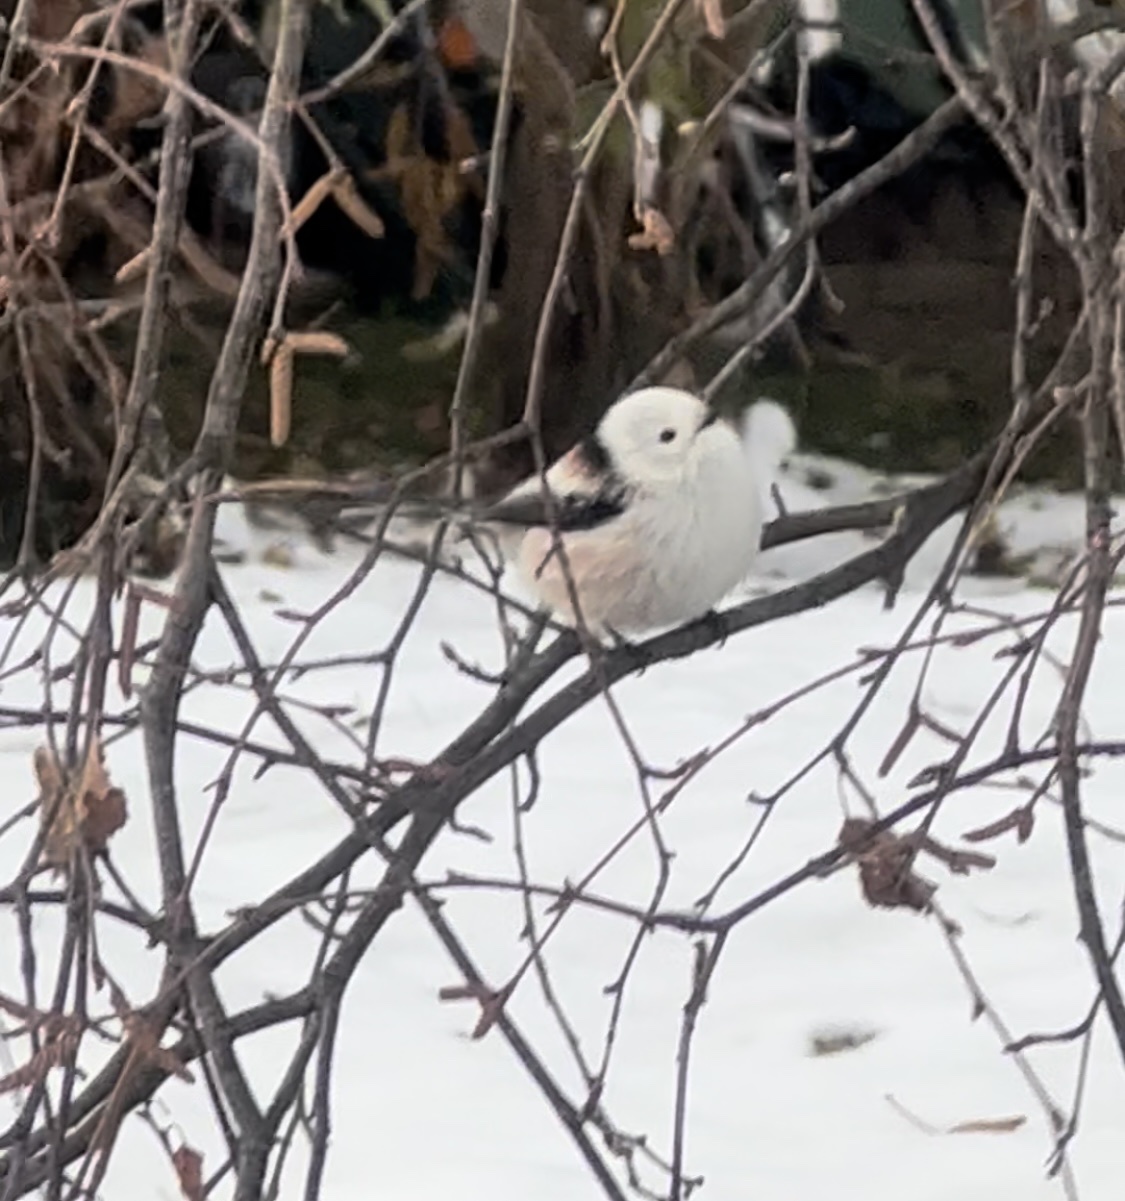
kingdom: Animalia
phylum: Chordata
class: Aves
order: Passeriformes
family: Aegithalidae
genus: Aegithalos
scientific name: Aegithalos caudatus
